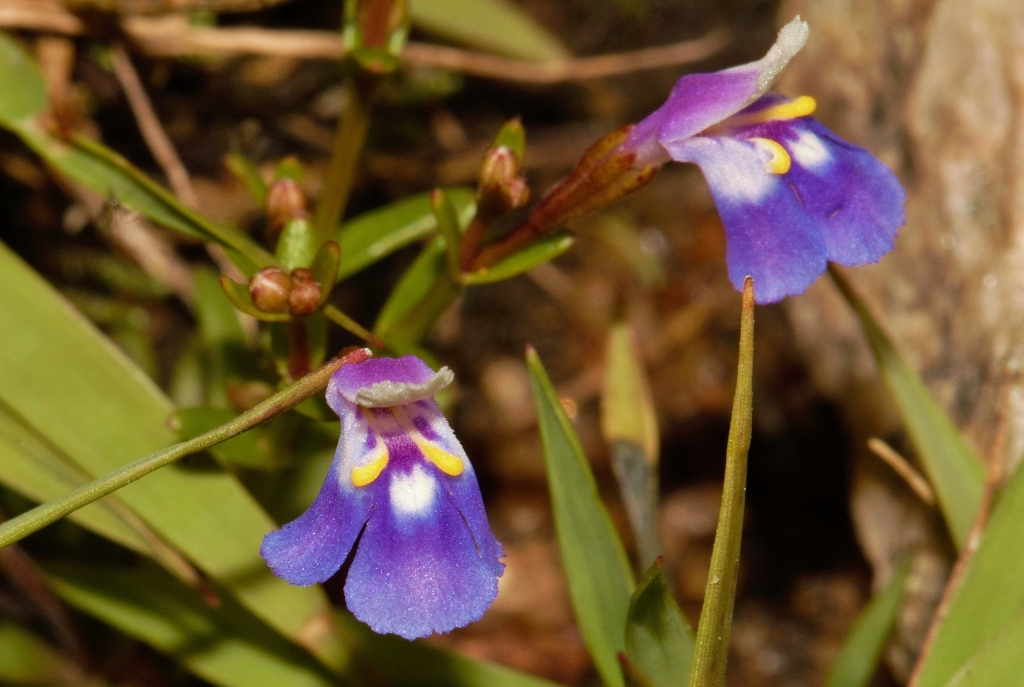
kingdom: Plantae
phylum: Tracheophyta
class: Magnoliopsida
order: Lamiales
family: Linderniaceae
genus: Linderniella
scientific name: Linderniella pulchella
